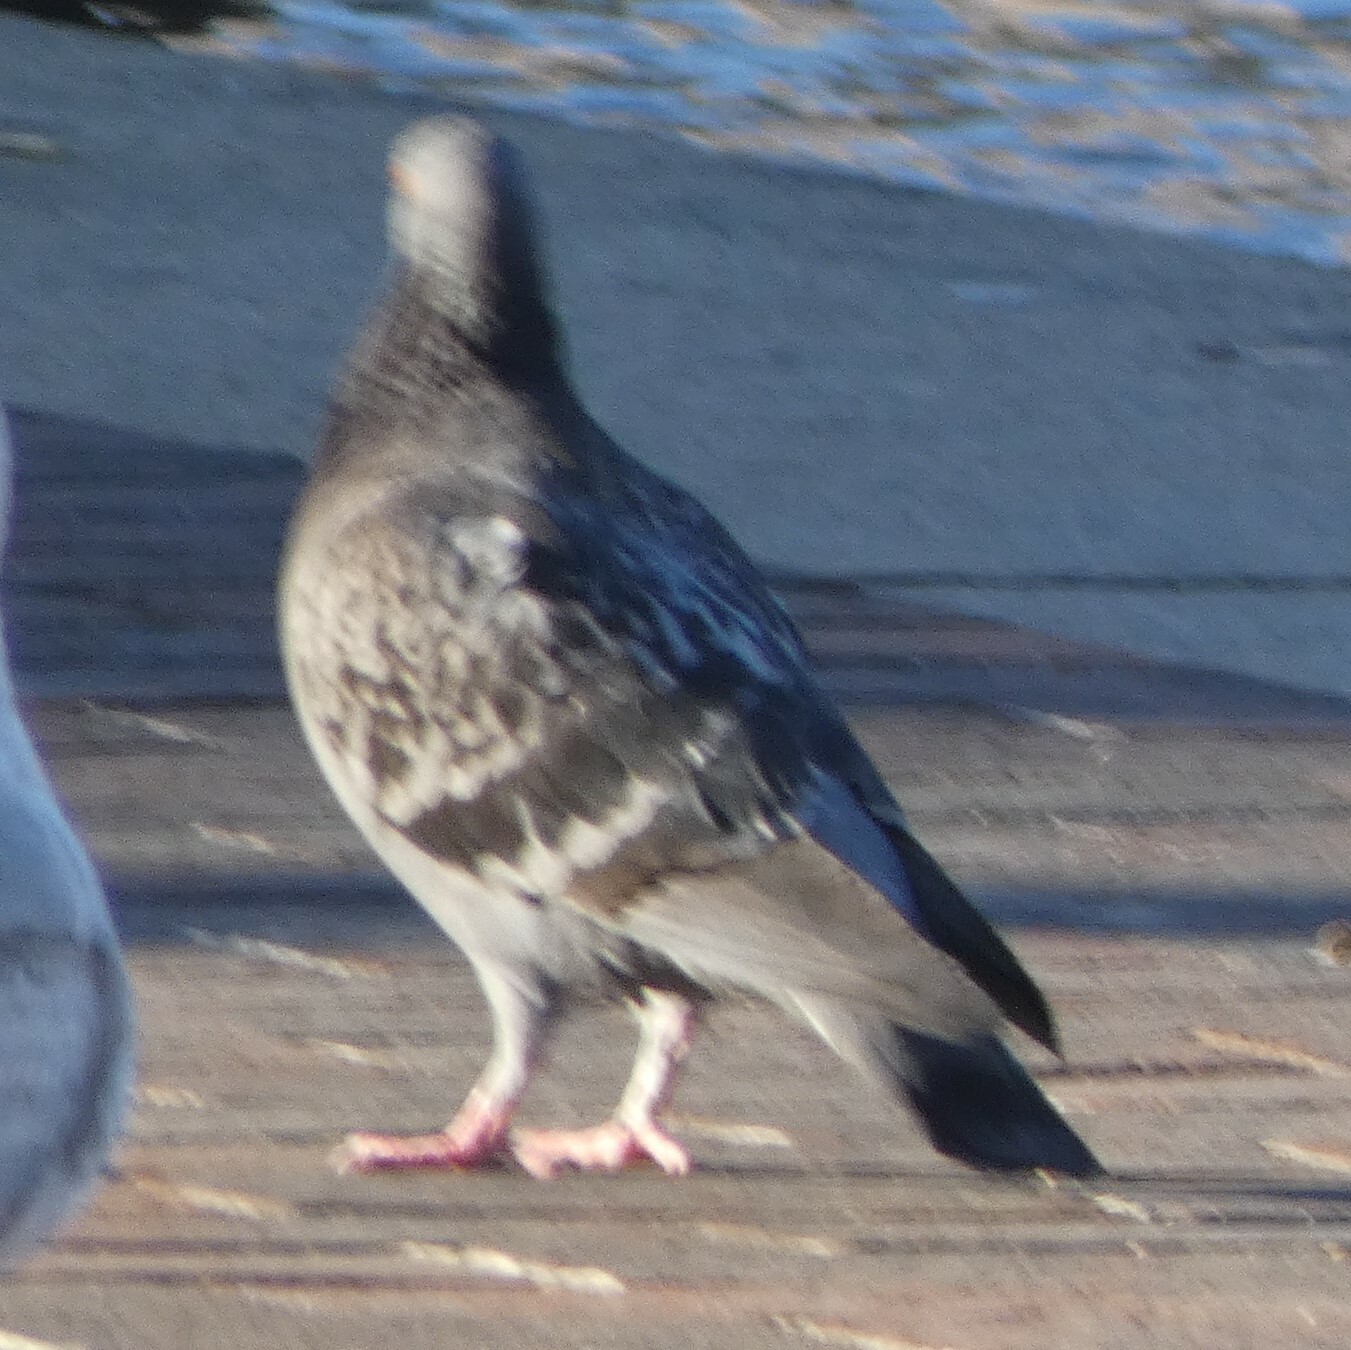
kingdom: Animalia
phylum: Chordata
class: Aves
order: Columbiformes
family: Columbidae
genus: Columba
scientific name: Columba livia
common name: Rock pigeon
